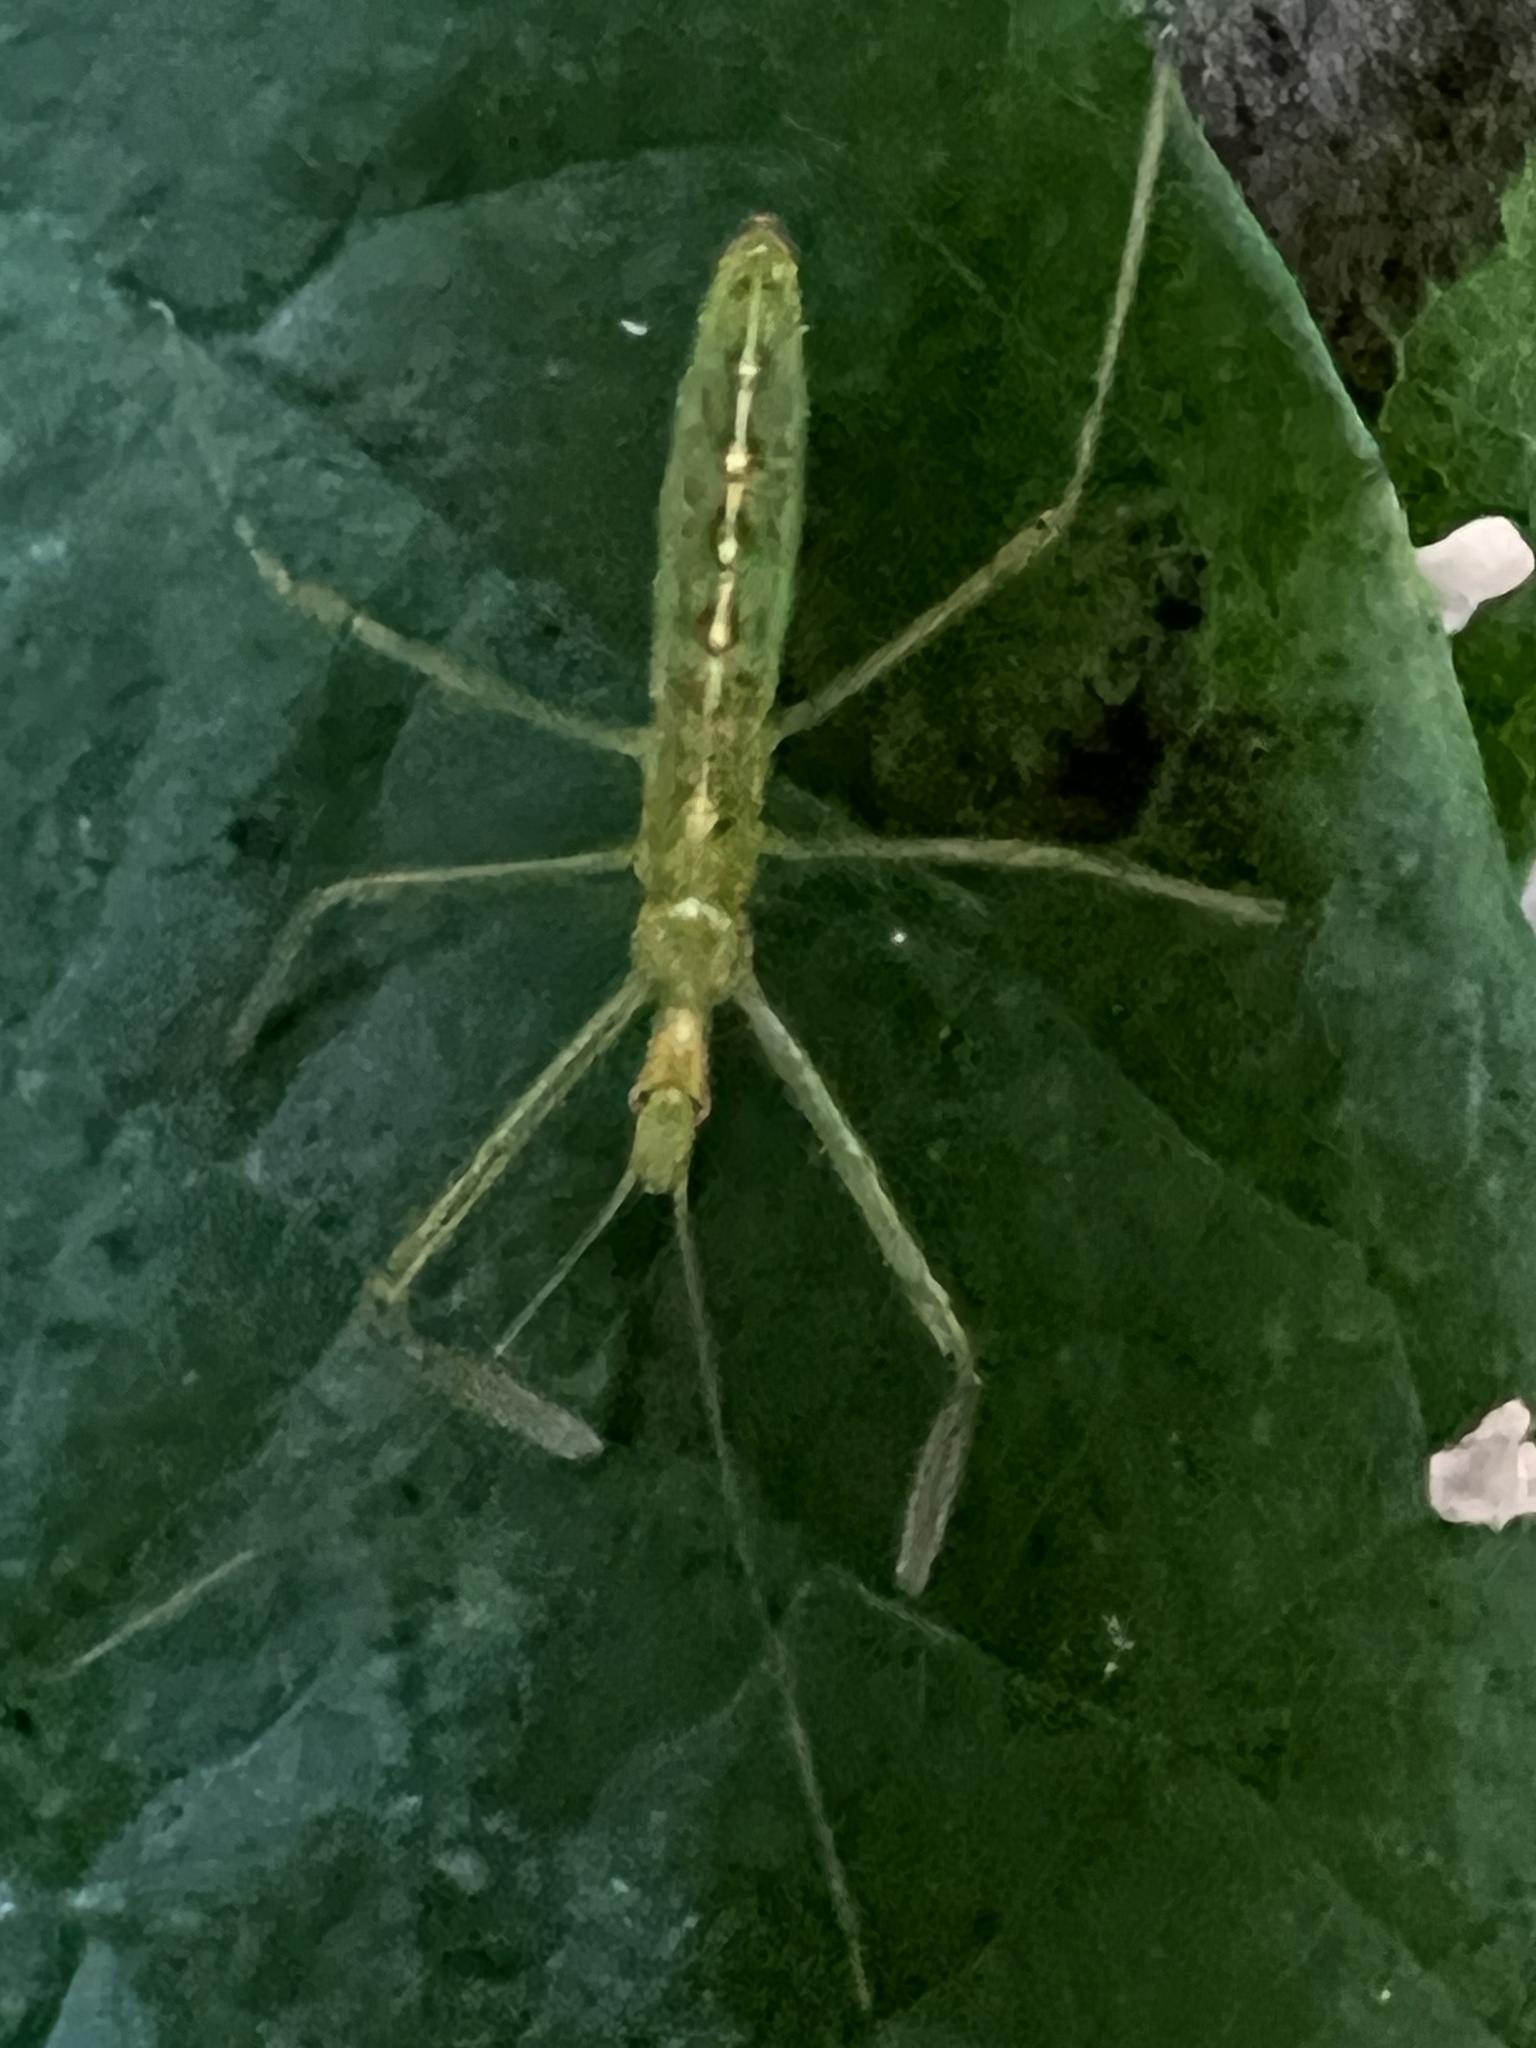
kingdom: Animalia
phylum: Arthropoda
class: Insecta
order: Hemiptera
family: Reduviidae
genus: Zelus
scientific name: Zelus luridus
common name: Pale green assassin bug
